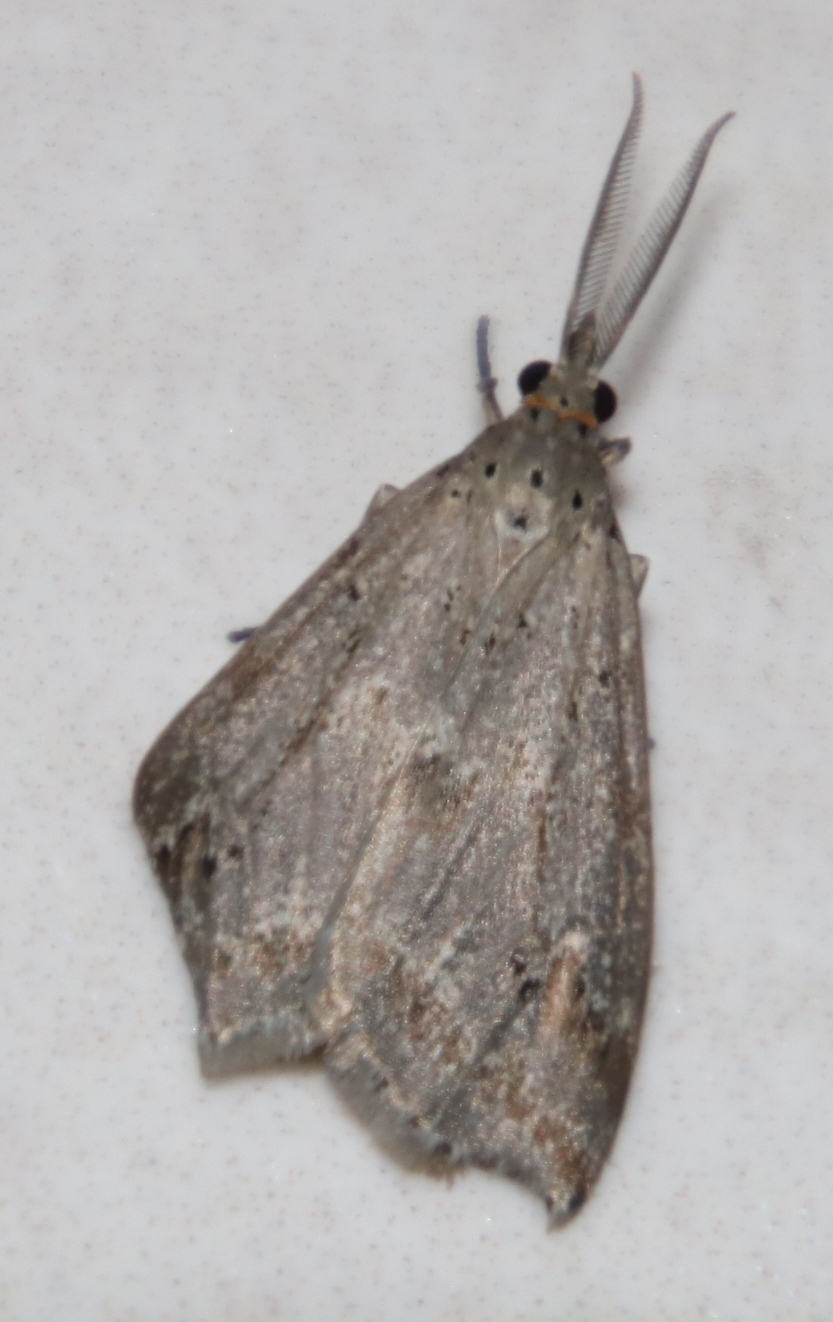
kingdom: Animalia
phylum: Arthropoda
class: Insecta
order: Lepidoptera
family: Erebidae
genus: Galtara
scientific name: Galtara rostrata
